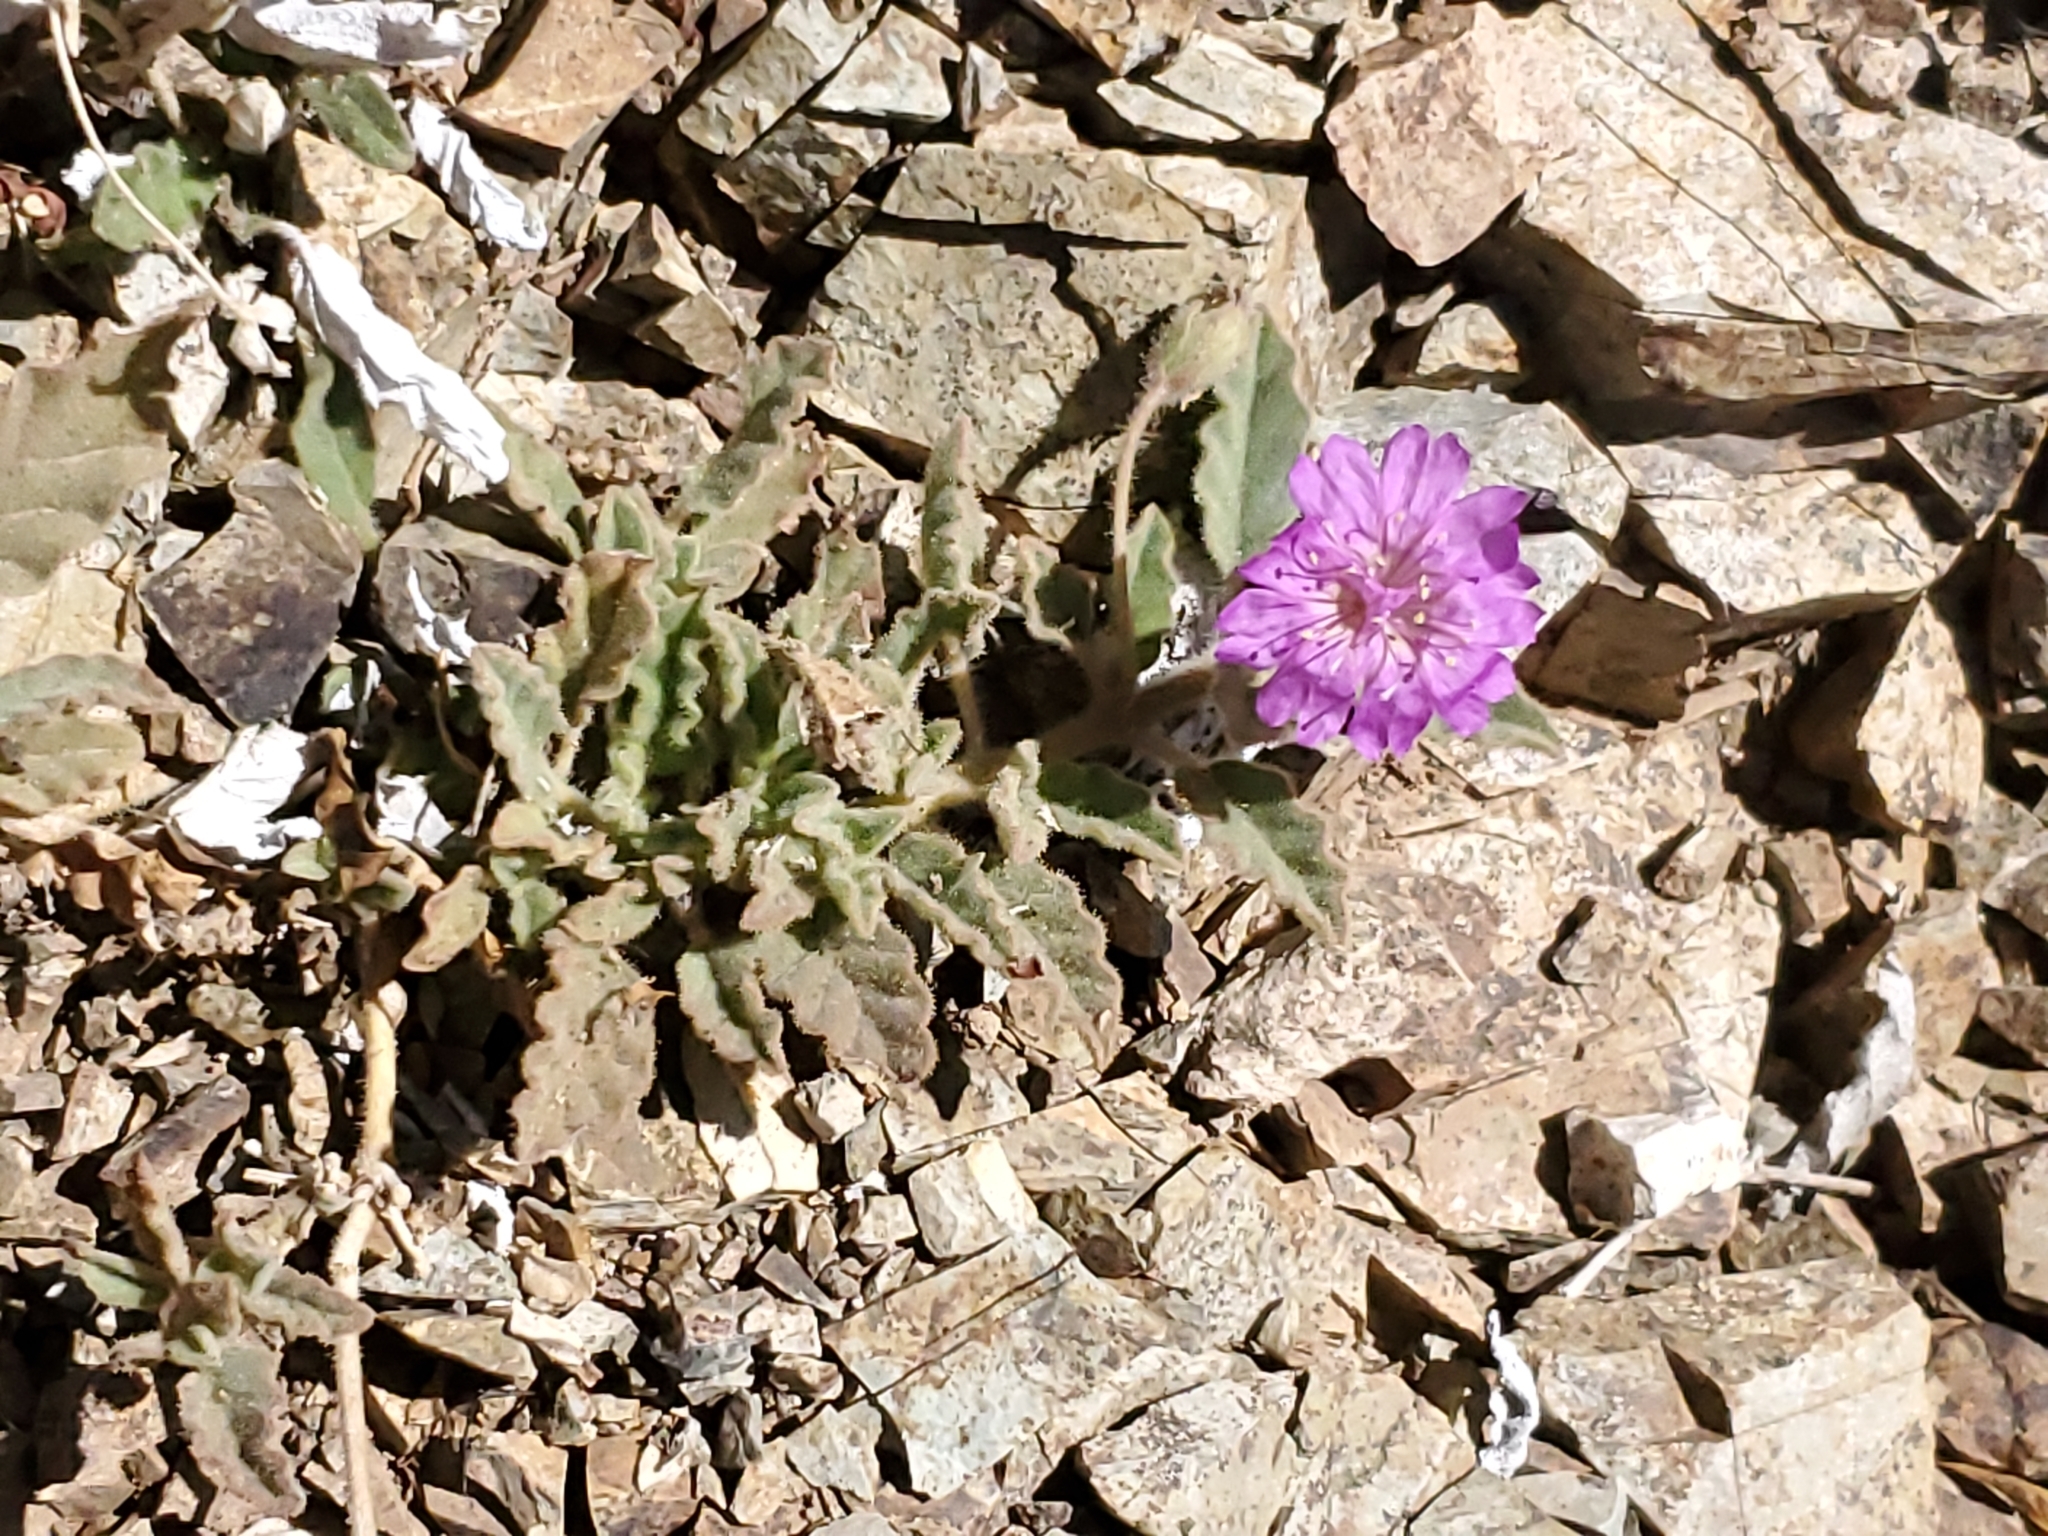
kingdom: Plantae
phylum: Tracheophyta
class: Magnoliopsida
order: Caryophyllales
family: Nyctaginaceae
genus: Allionia
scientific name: Allionia incarnata
